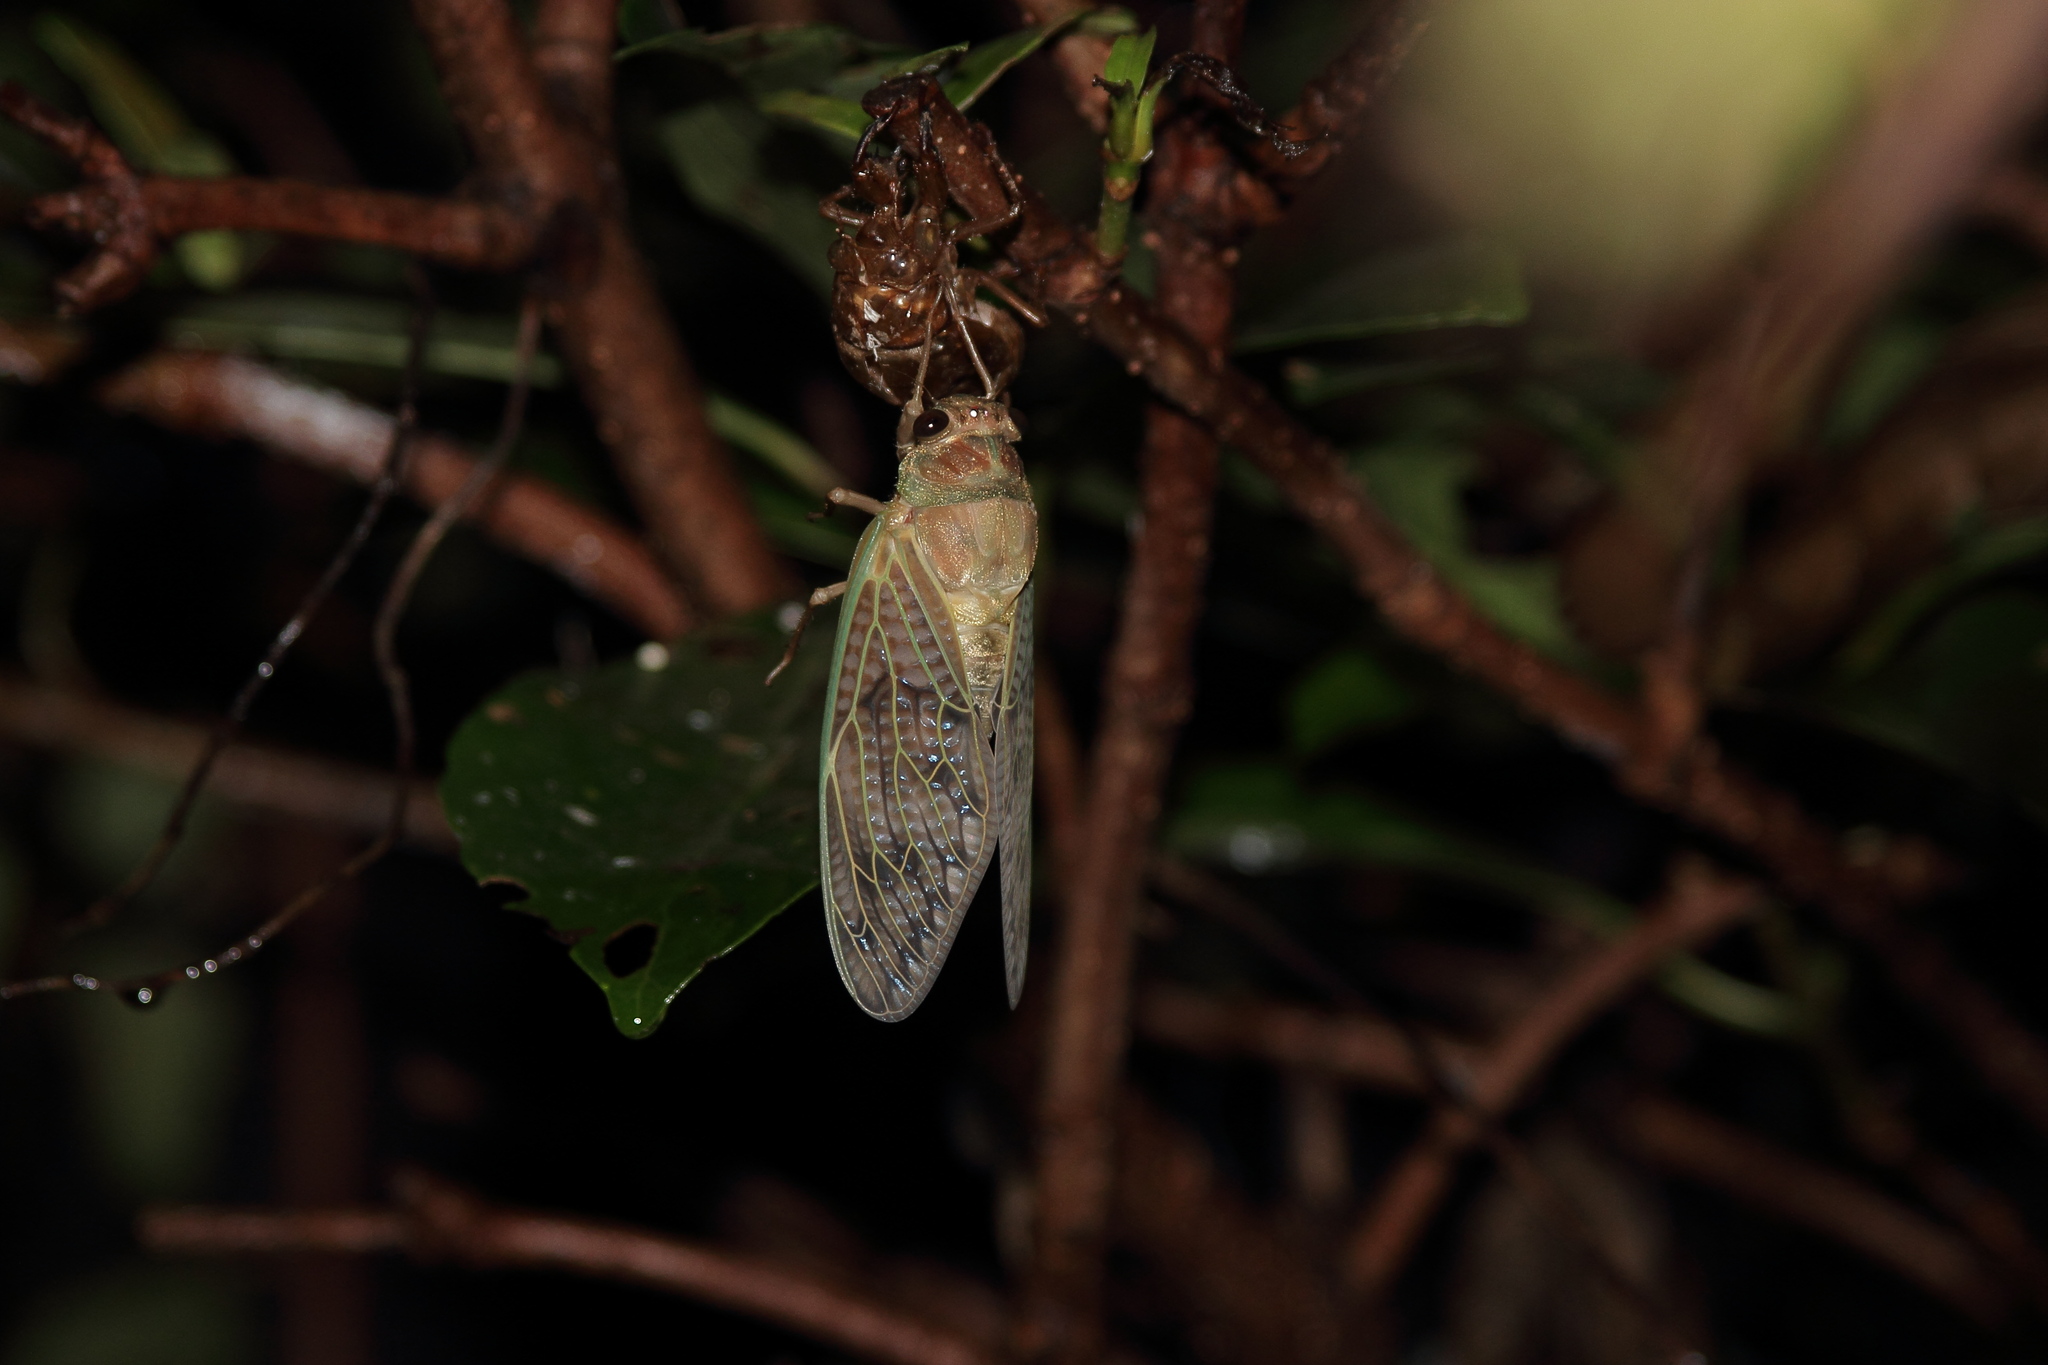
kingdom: Animalia
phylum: Arthropoda
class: Insecta
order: Hemiptera
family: Cicadidae
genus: Graptopsaltria
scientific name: Graptopsaltria nigrofuscata
